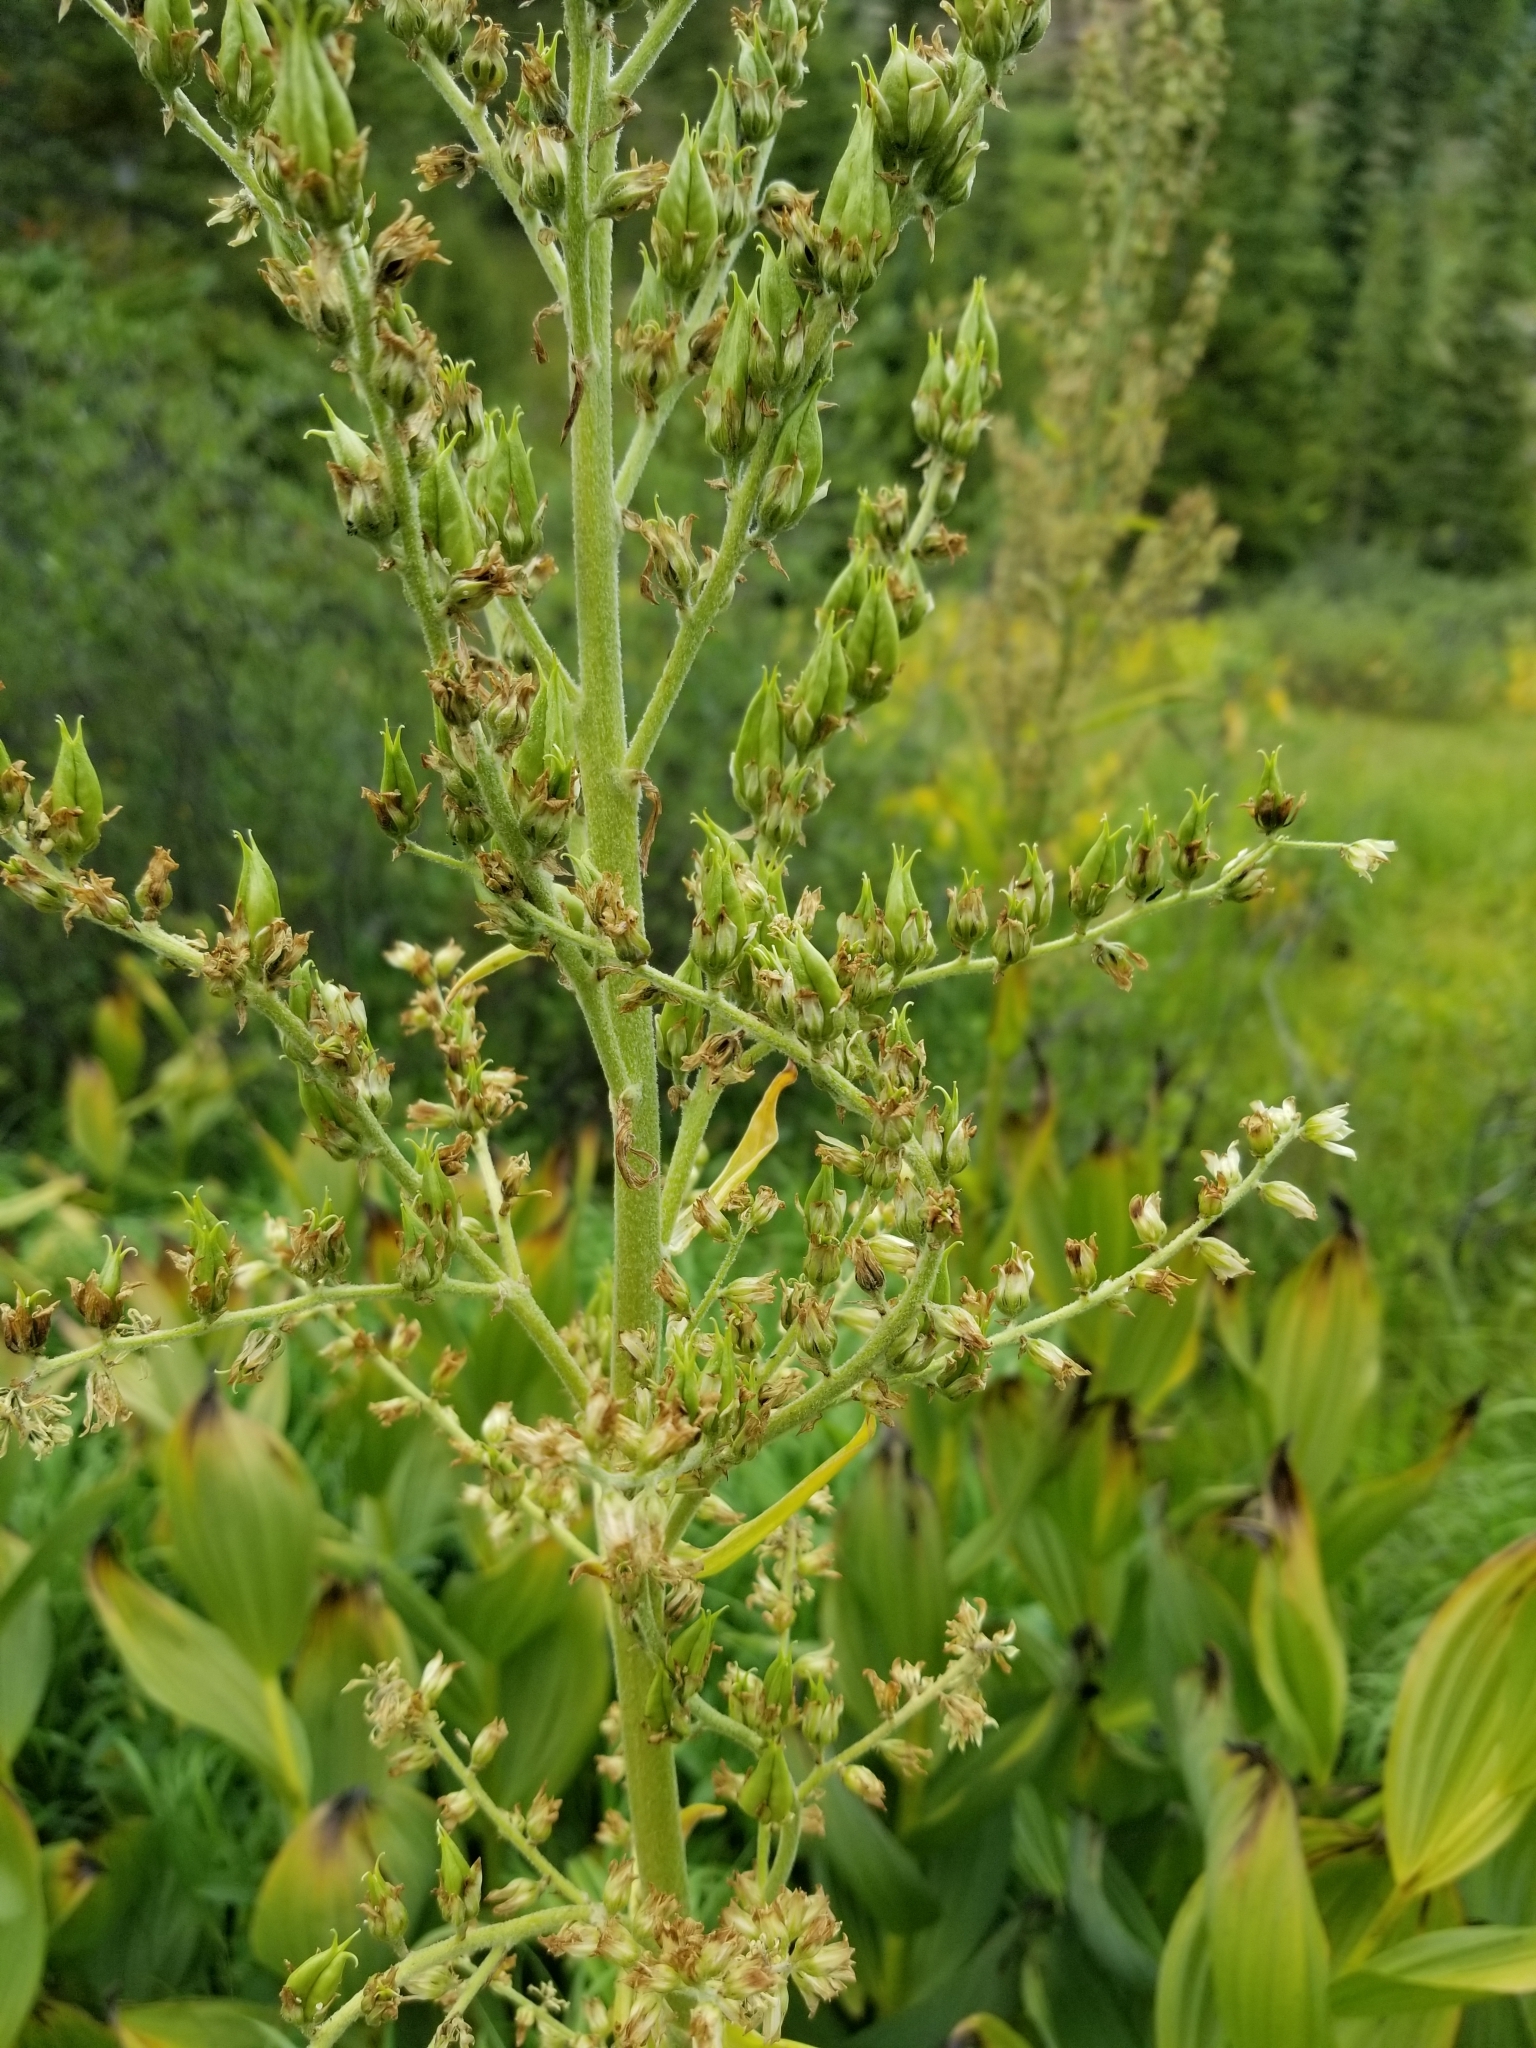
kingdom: Plantae
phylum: Tracheophyta
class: Liliopsida
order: Liliales
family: Melanthiaceae
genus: Veratrum
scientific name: Veratrum californicum
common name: California veratrum
